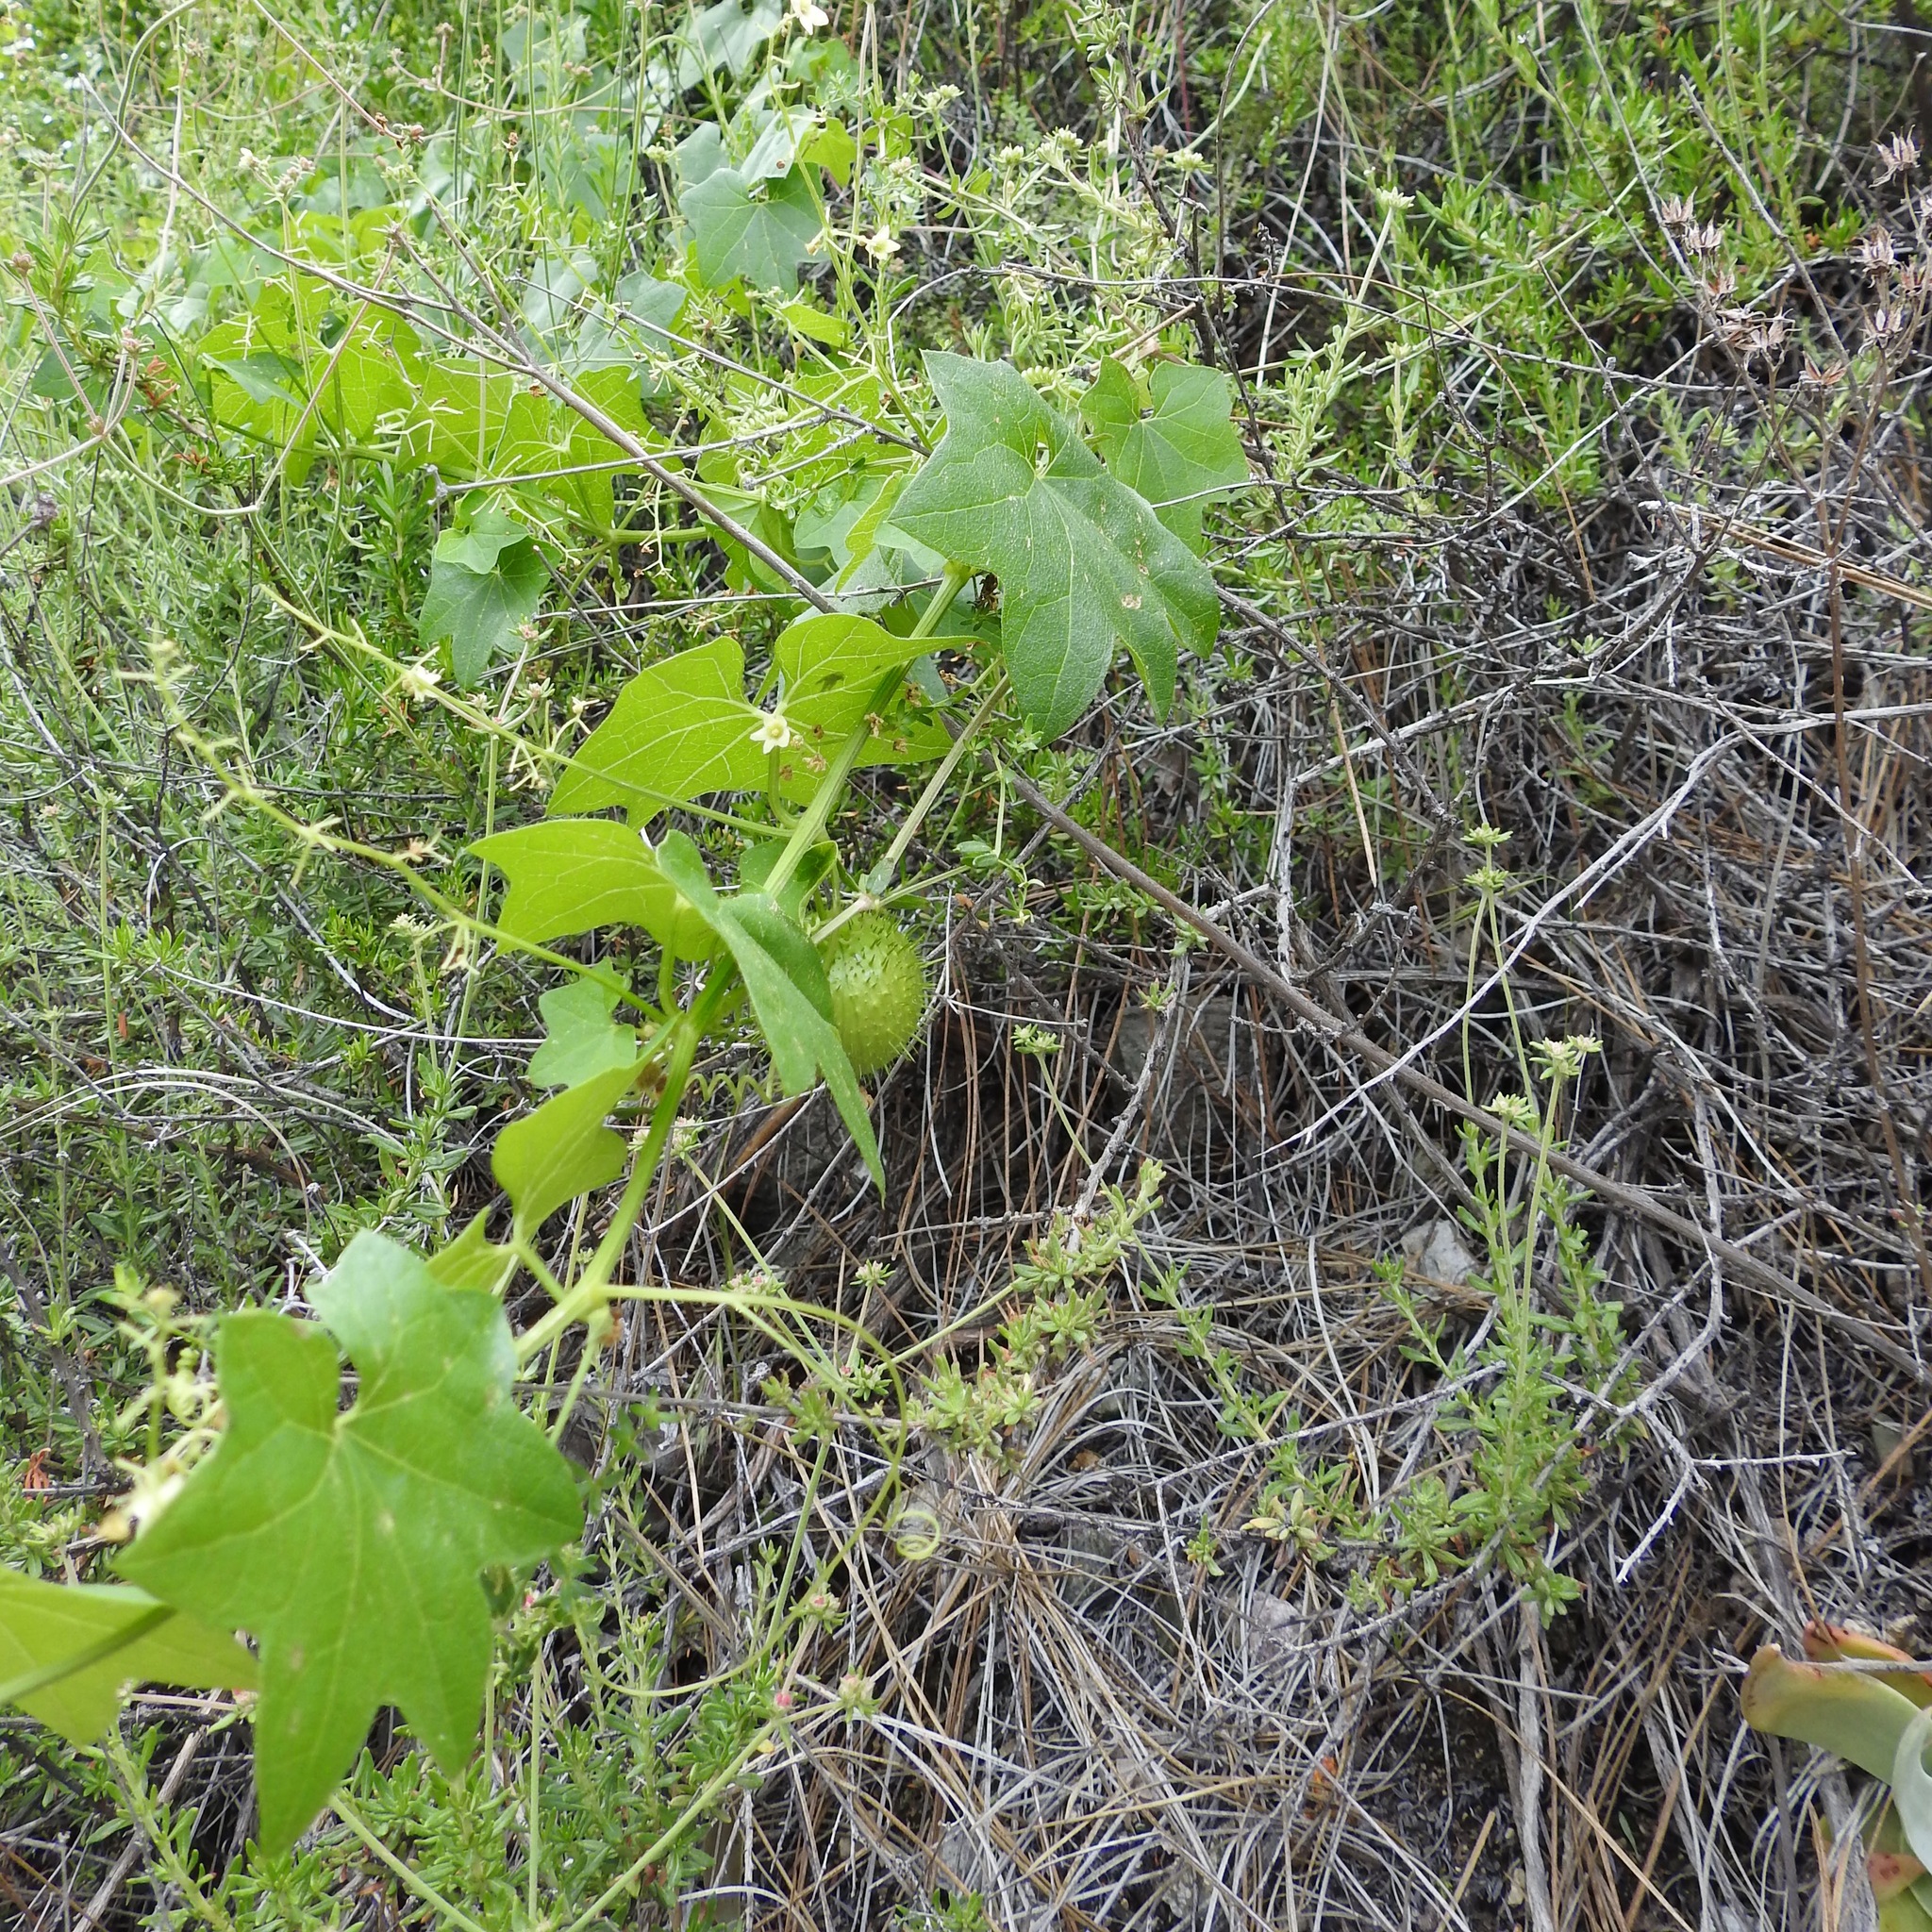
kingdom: Plantae
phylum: Tracheophyta
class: Magnoliopsida
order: Cucurbitales
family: Cucurbitaceae
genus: Marah
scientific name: Marah fabacea
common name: California manroot
